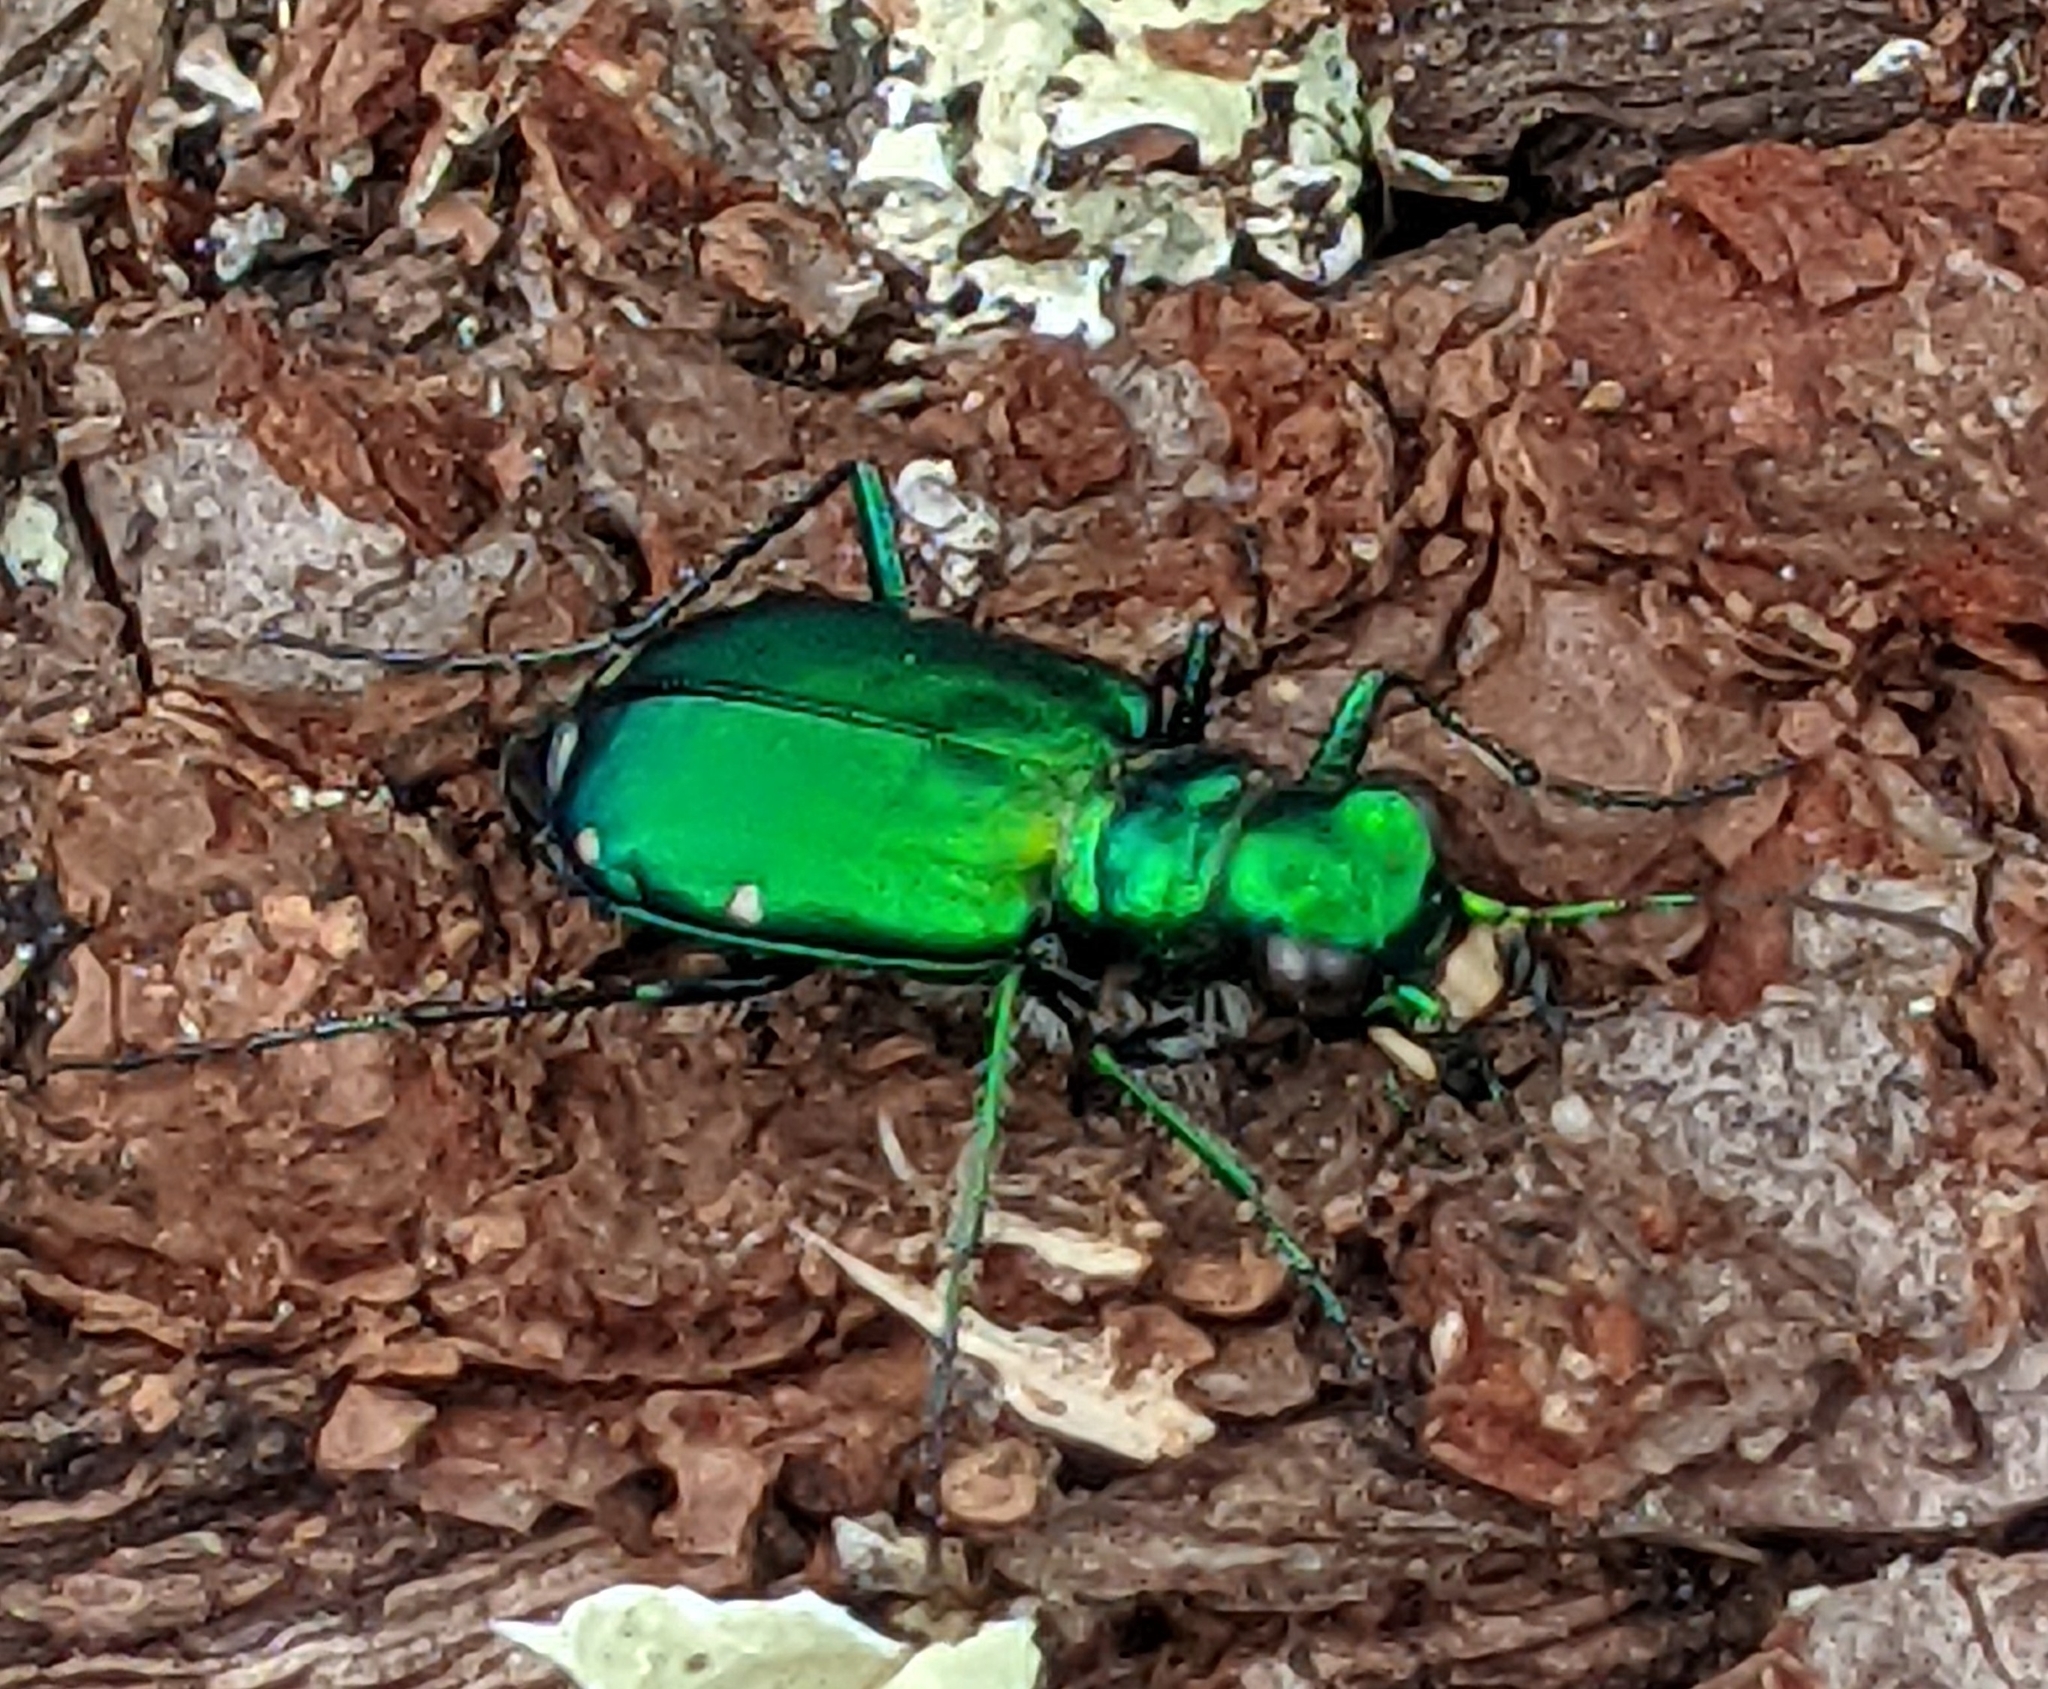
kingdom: Animalia
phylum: Arthropoda
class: Insecta
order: Coleoptera
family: Carabidae
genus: Cicindela
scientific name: Cicindela sexguttata
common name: Six-spotted tiger beetle
